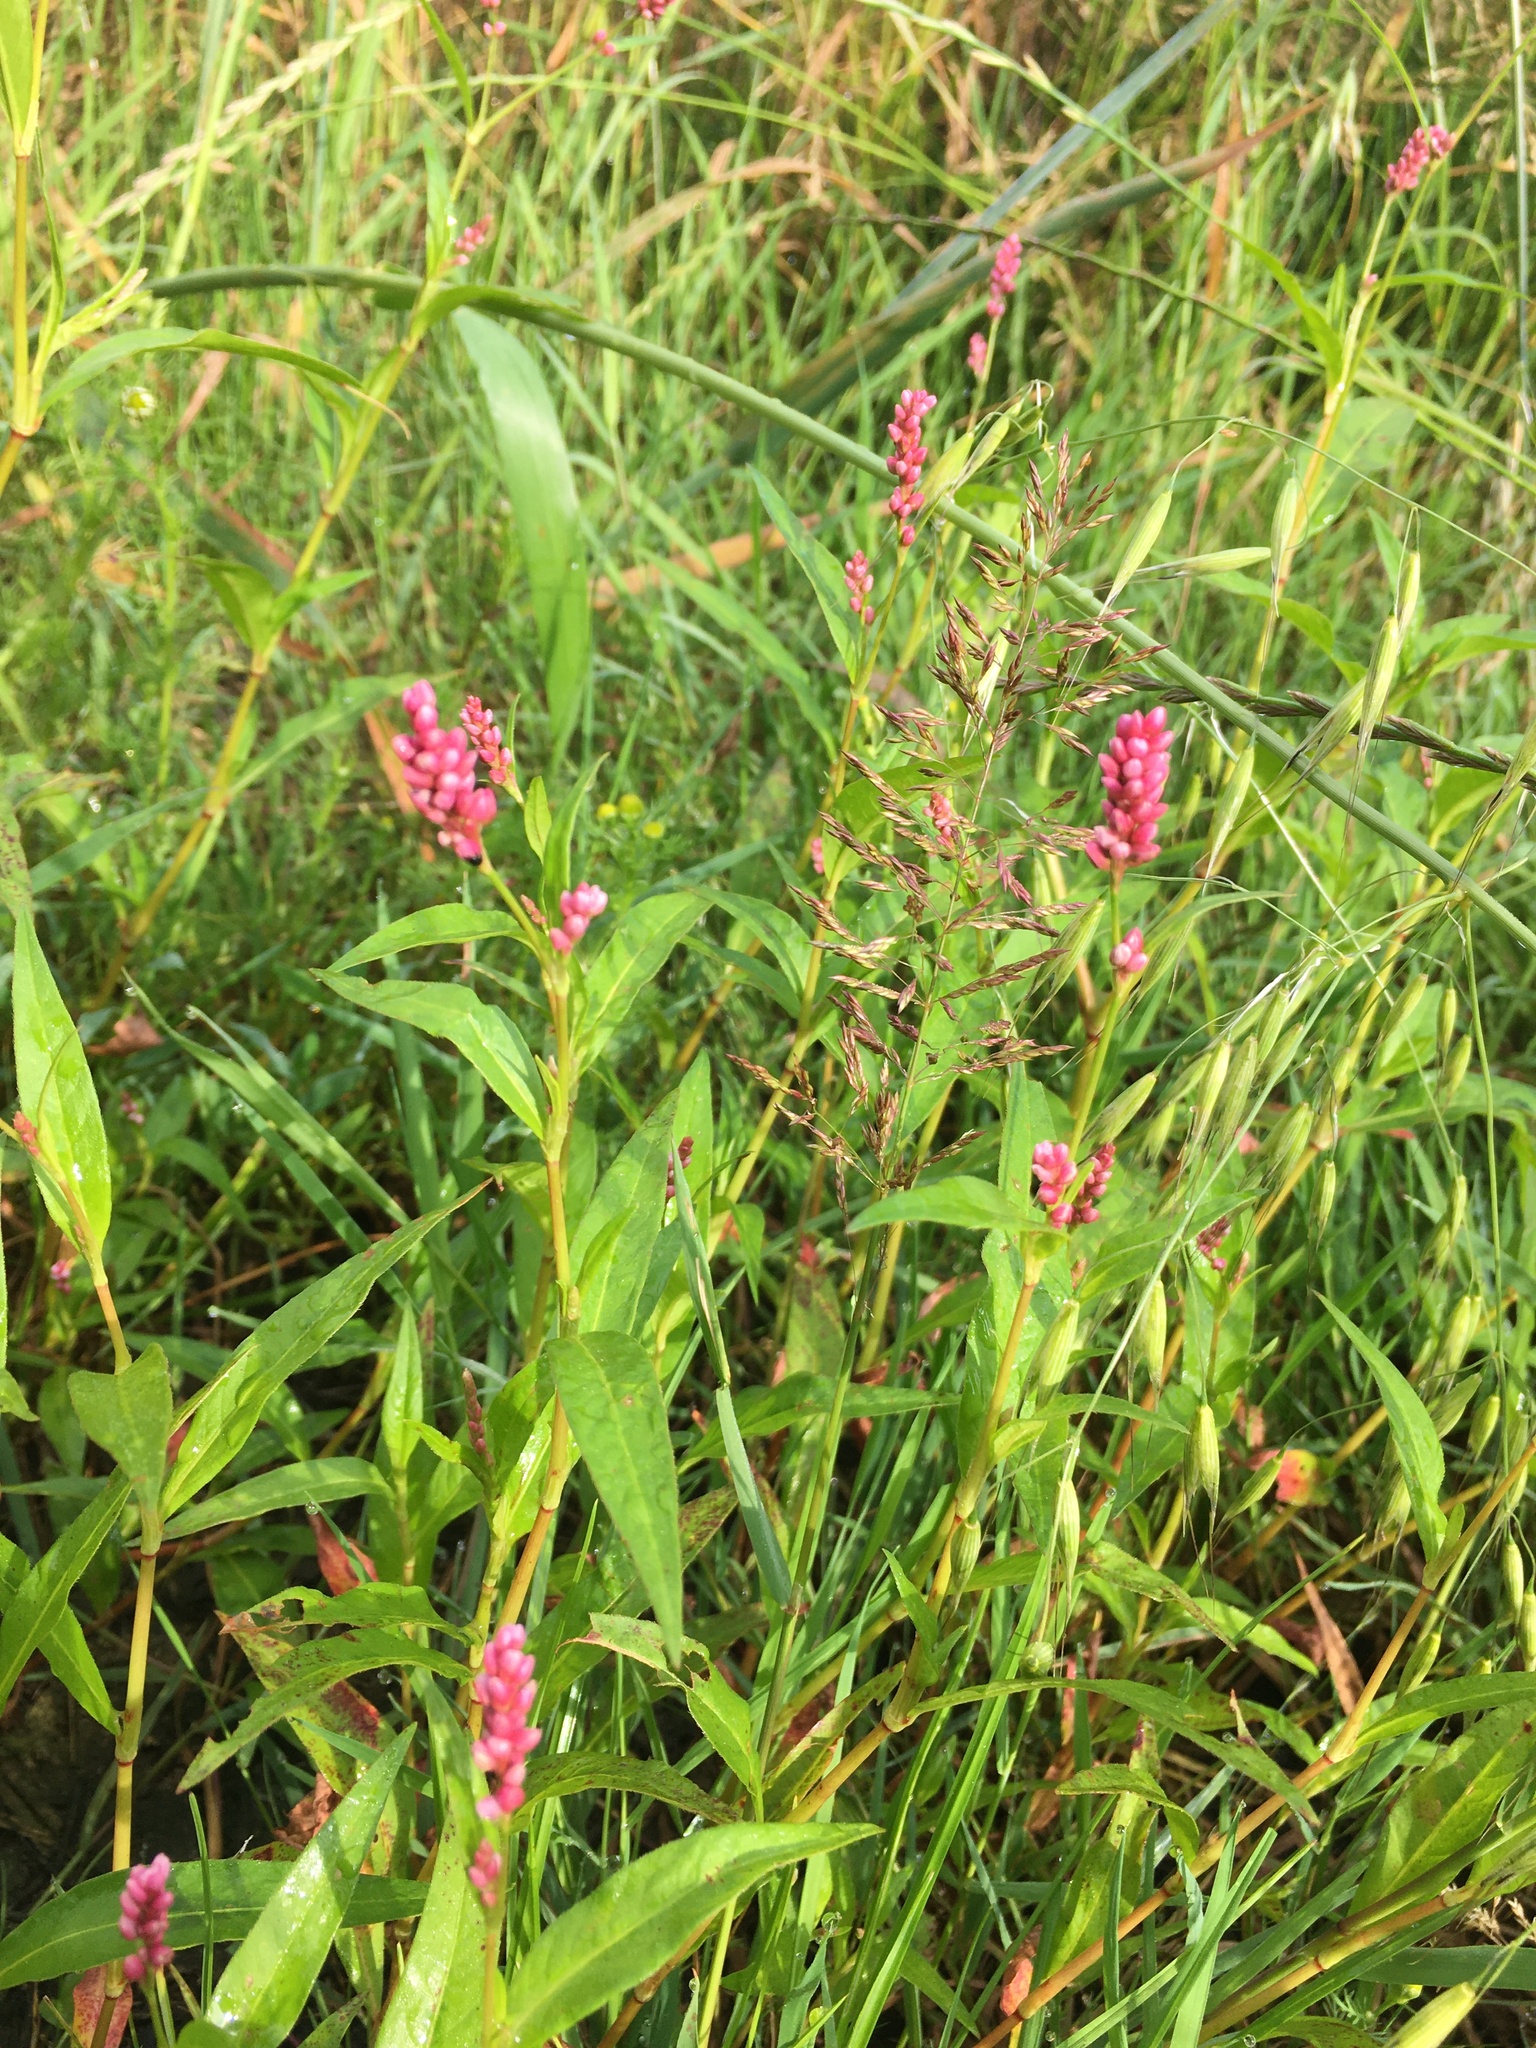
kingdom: Plantae
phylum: Tracheophyta
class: Magnoliopsida
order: Caryophyllales
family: Polygonaceae
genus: Persicaria
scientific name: Persicaria maculosa
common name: Redshank
